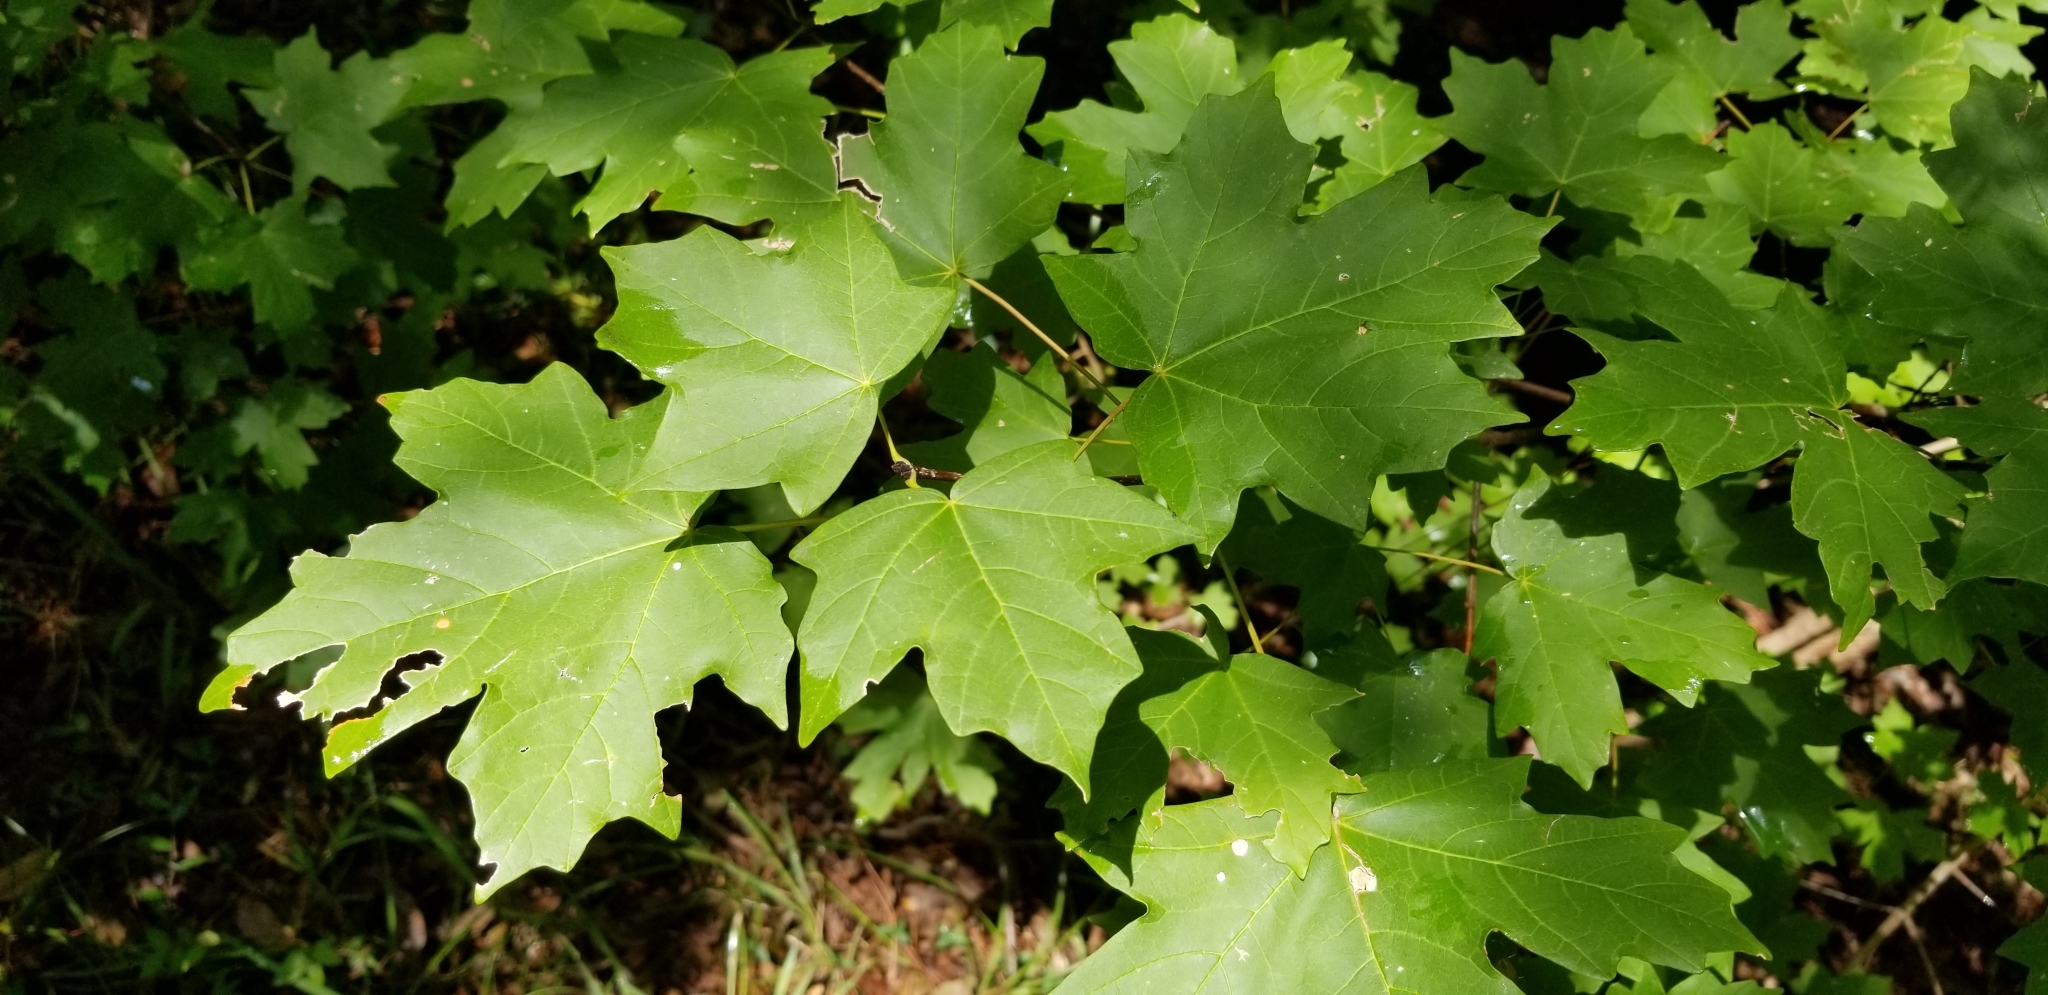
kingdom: Plantae
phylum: Tracheophyta
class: Magnoliopsida
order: Sapindales
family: Sapindaceae
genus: Acer
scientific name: Acer floridanum
